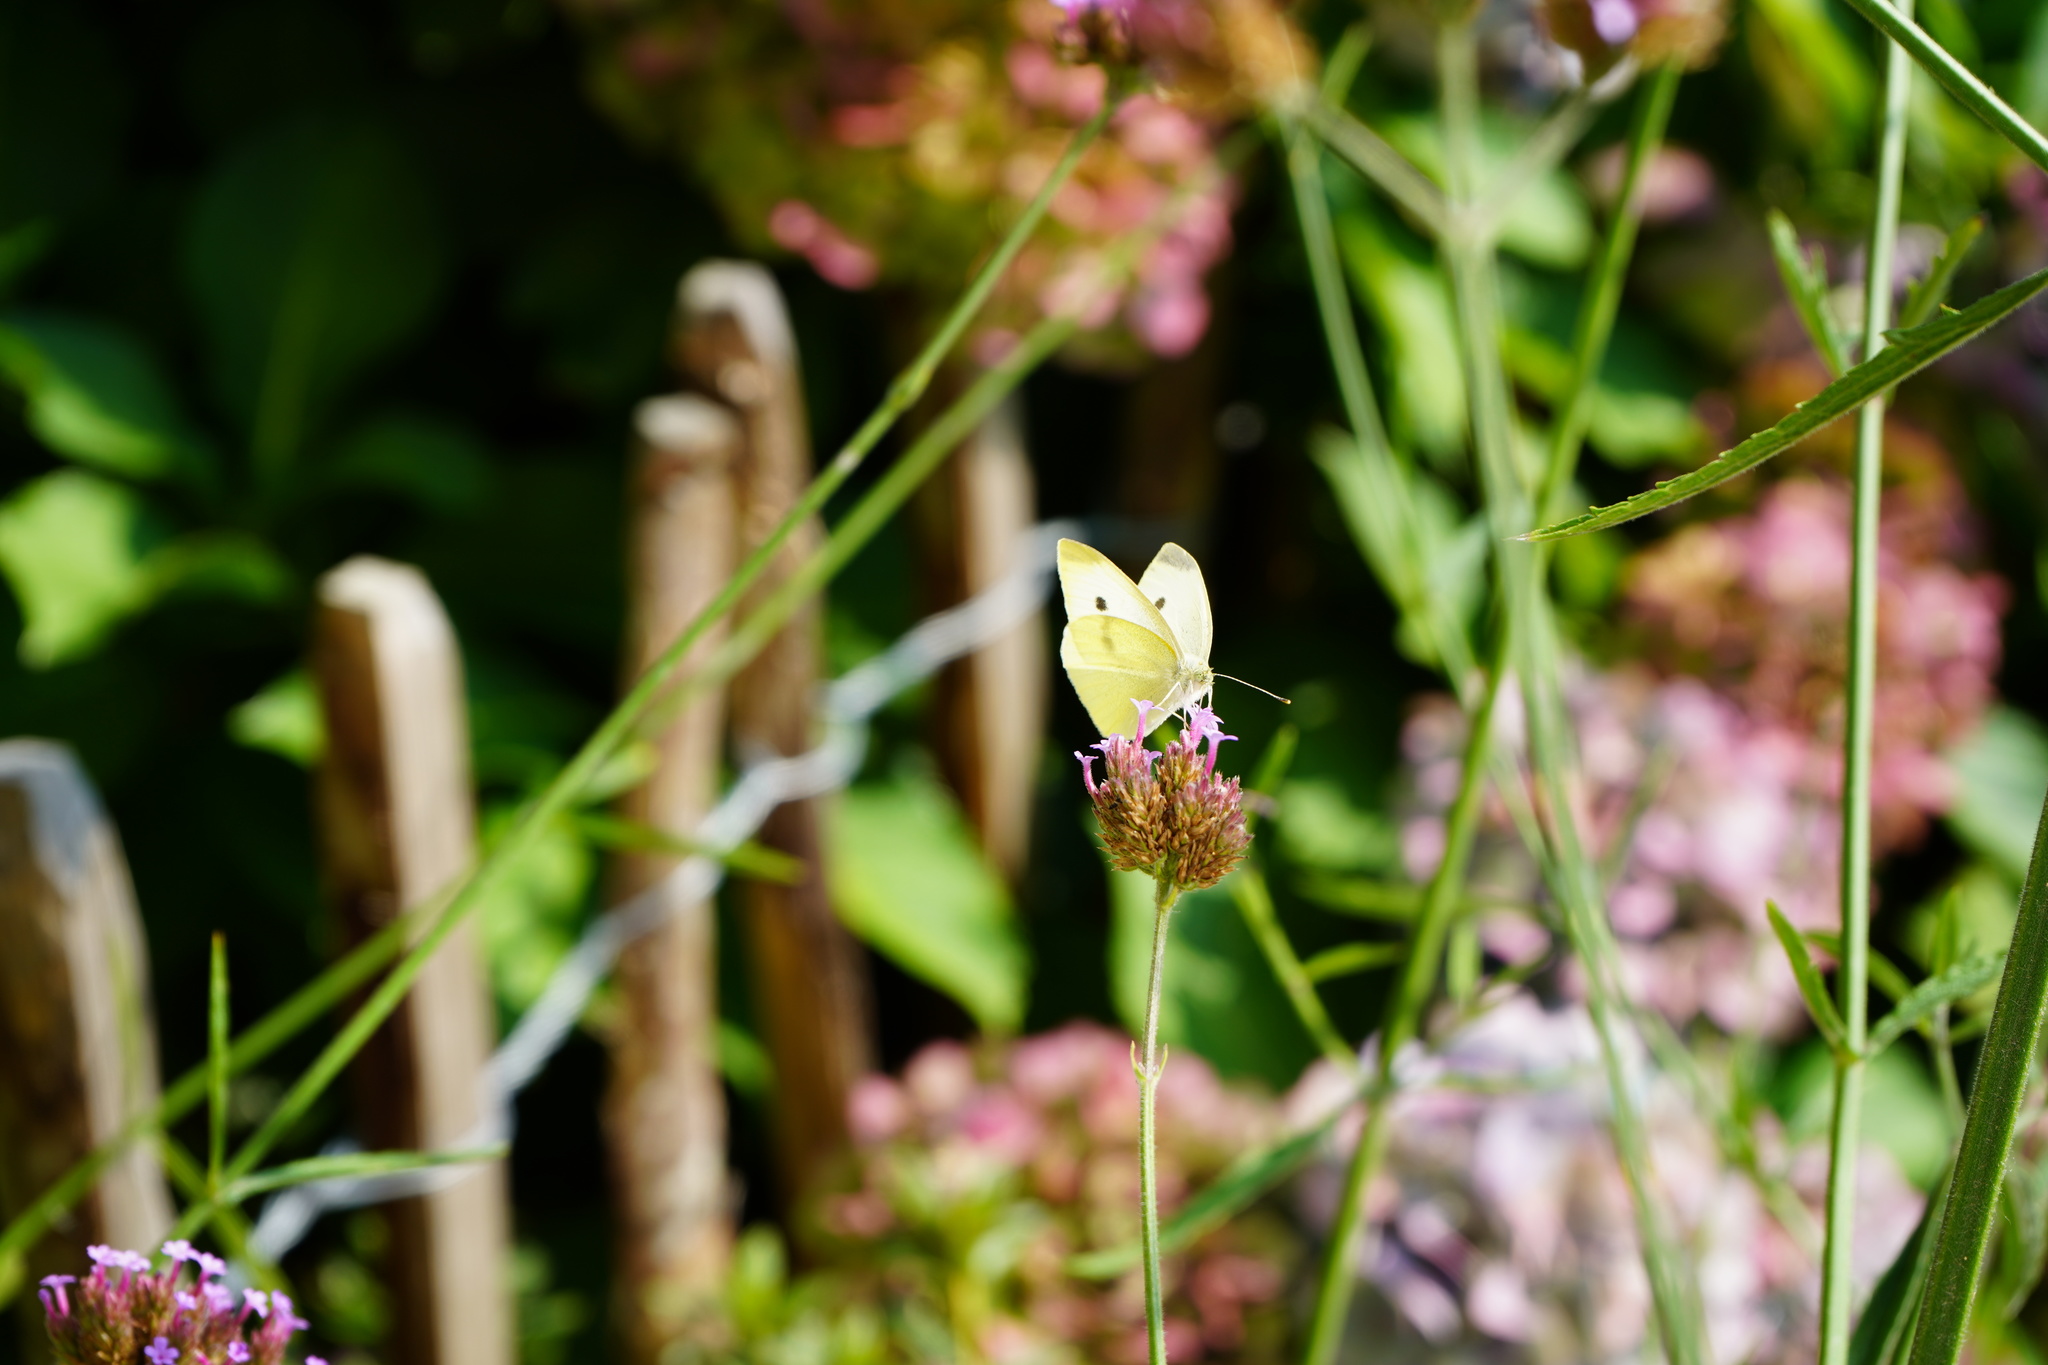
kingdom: Animalia
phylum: Arthropoda
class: Insecta
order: Lepidoptera
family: Pieridae
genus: Pieris
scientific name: Pieris rapae
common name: Small white
